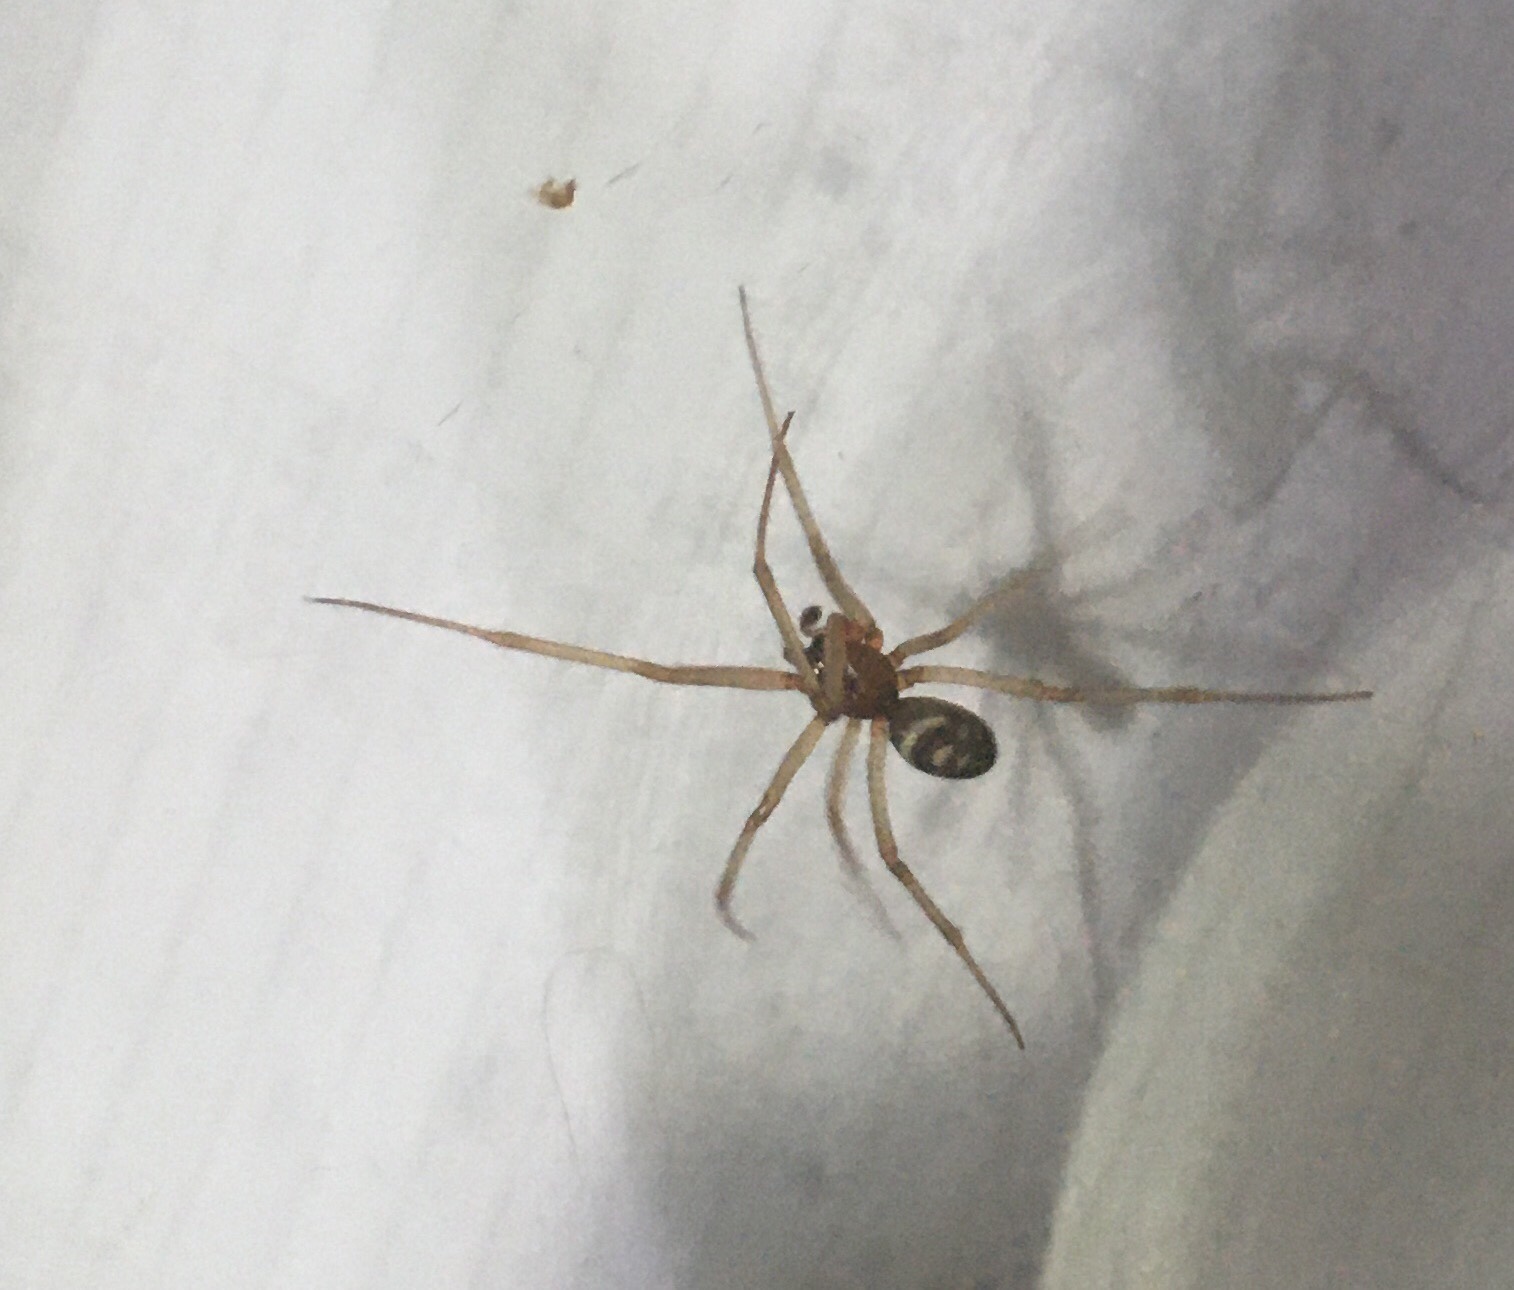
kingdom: Animalia
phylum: Arthropoda
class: Arachnida
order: Araneae
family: Theridiidae
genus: Steatoda
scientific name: Steatoda grossa
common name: False black widow
